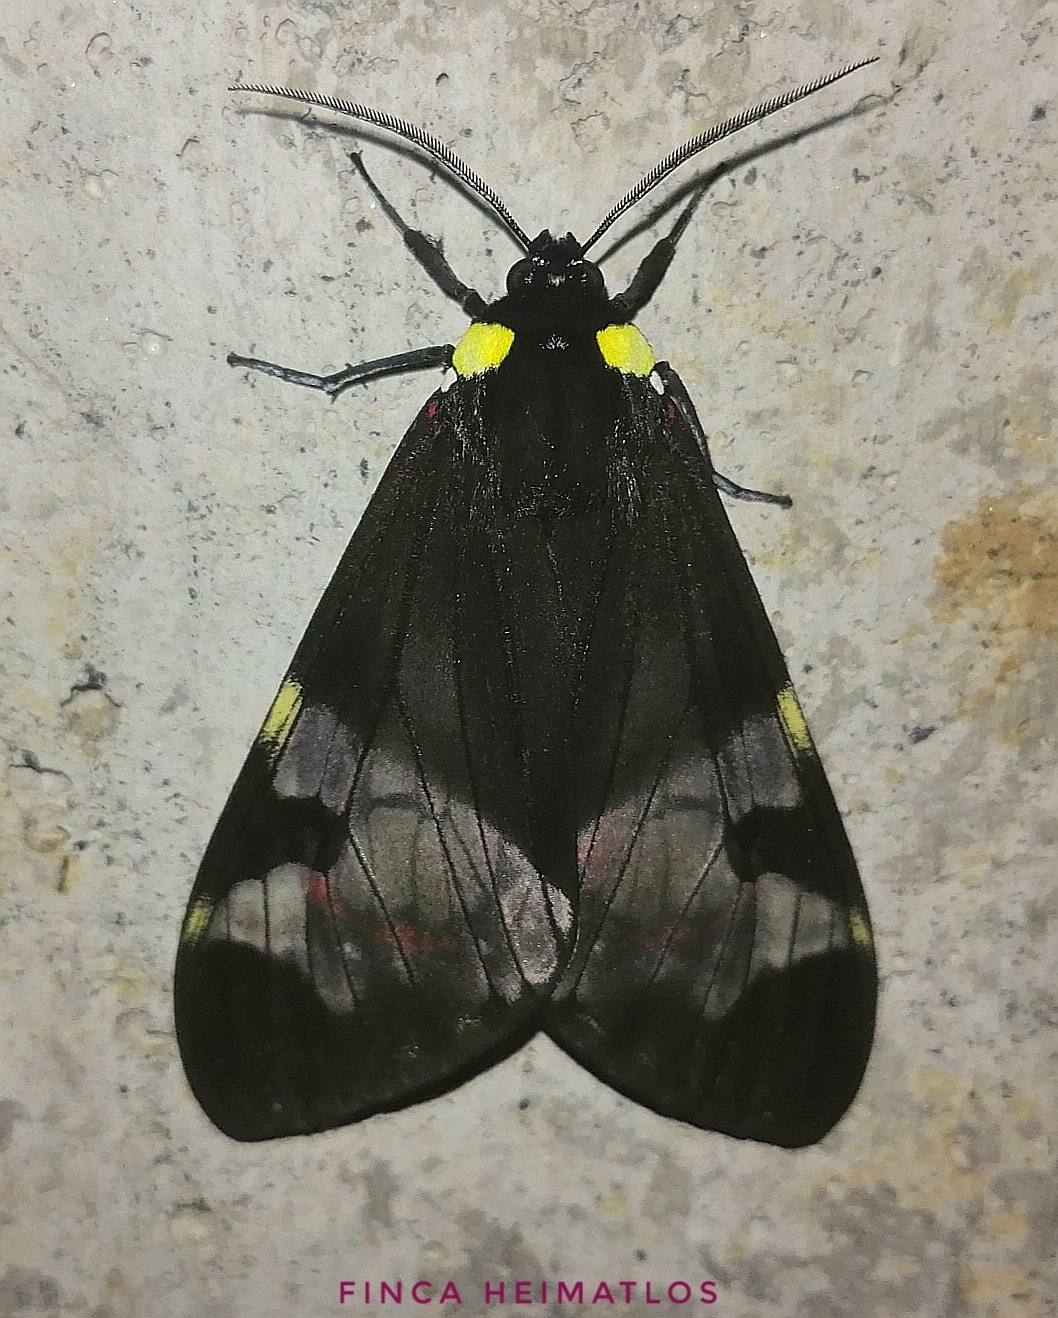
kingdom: Animalia
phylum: Arthropoda
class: Insecta
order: Lepidoptera
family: Erebidae
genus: Dysschema
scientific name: Dysschema marginalis
